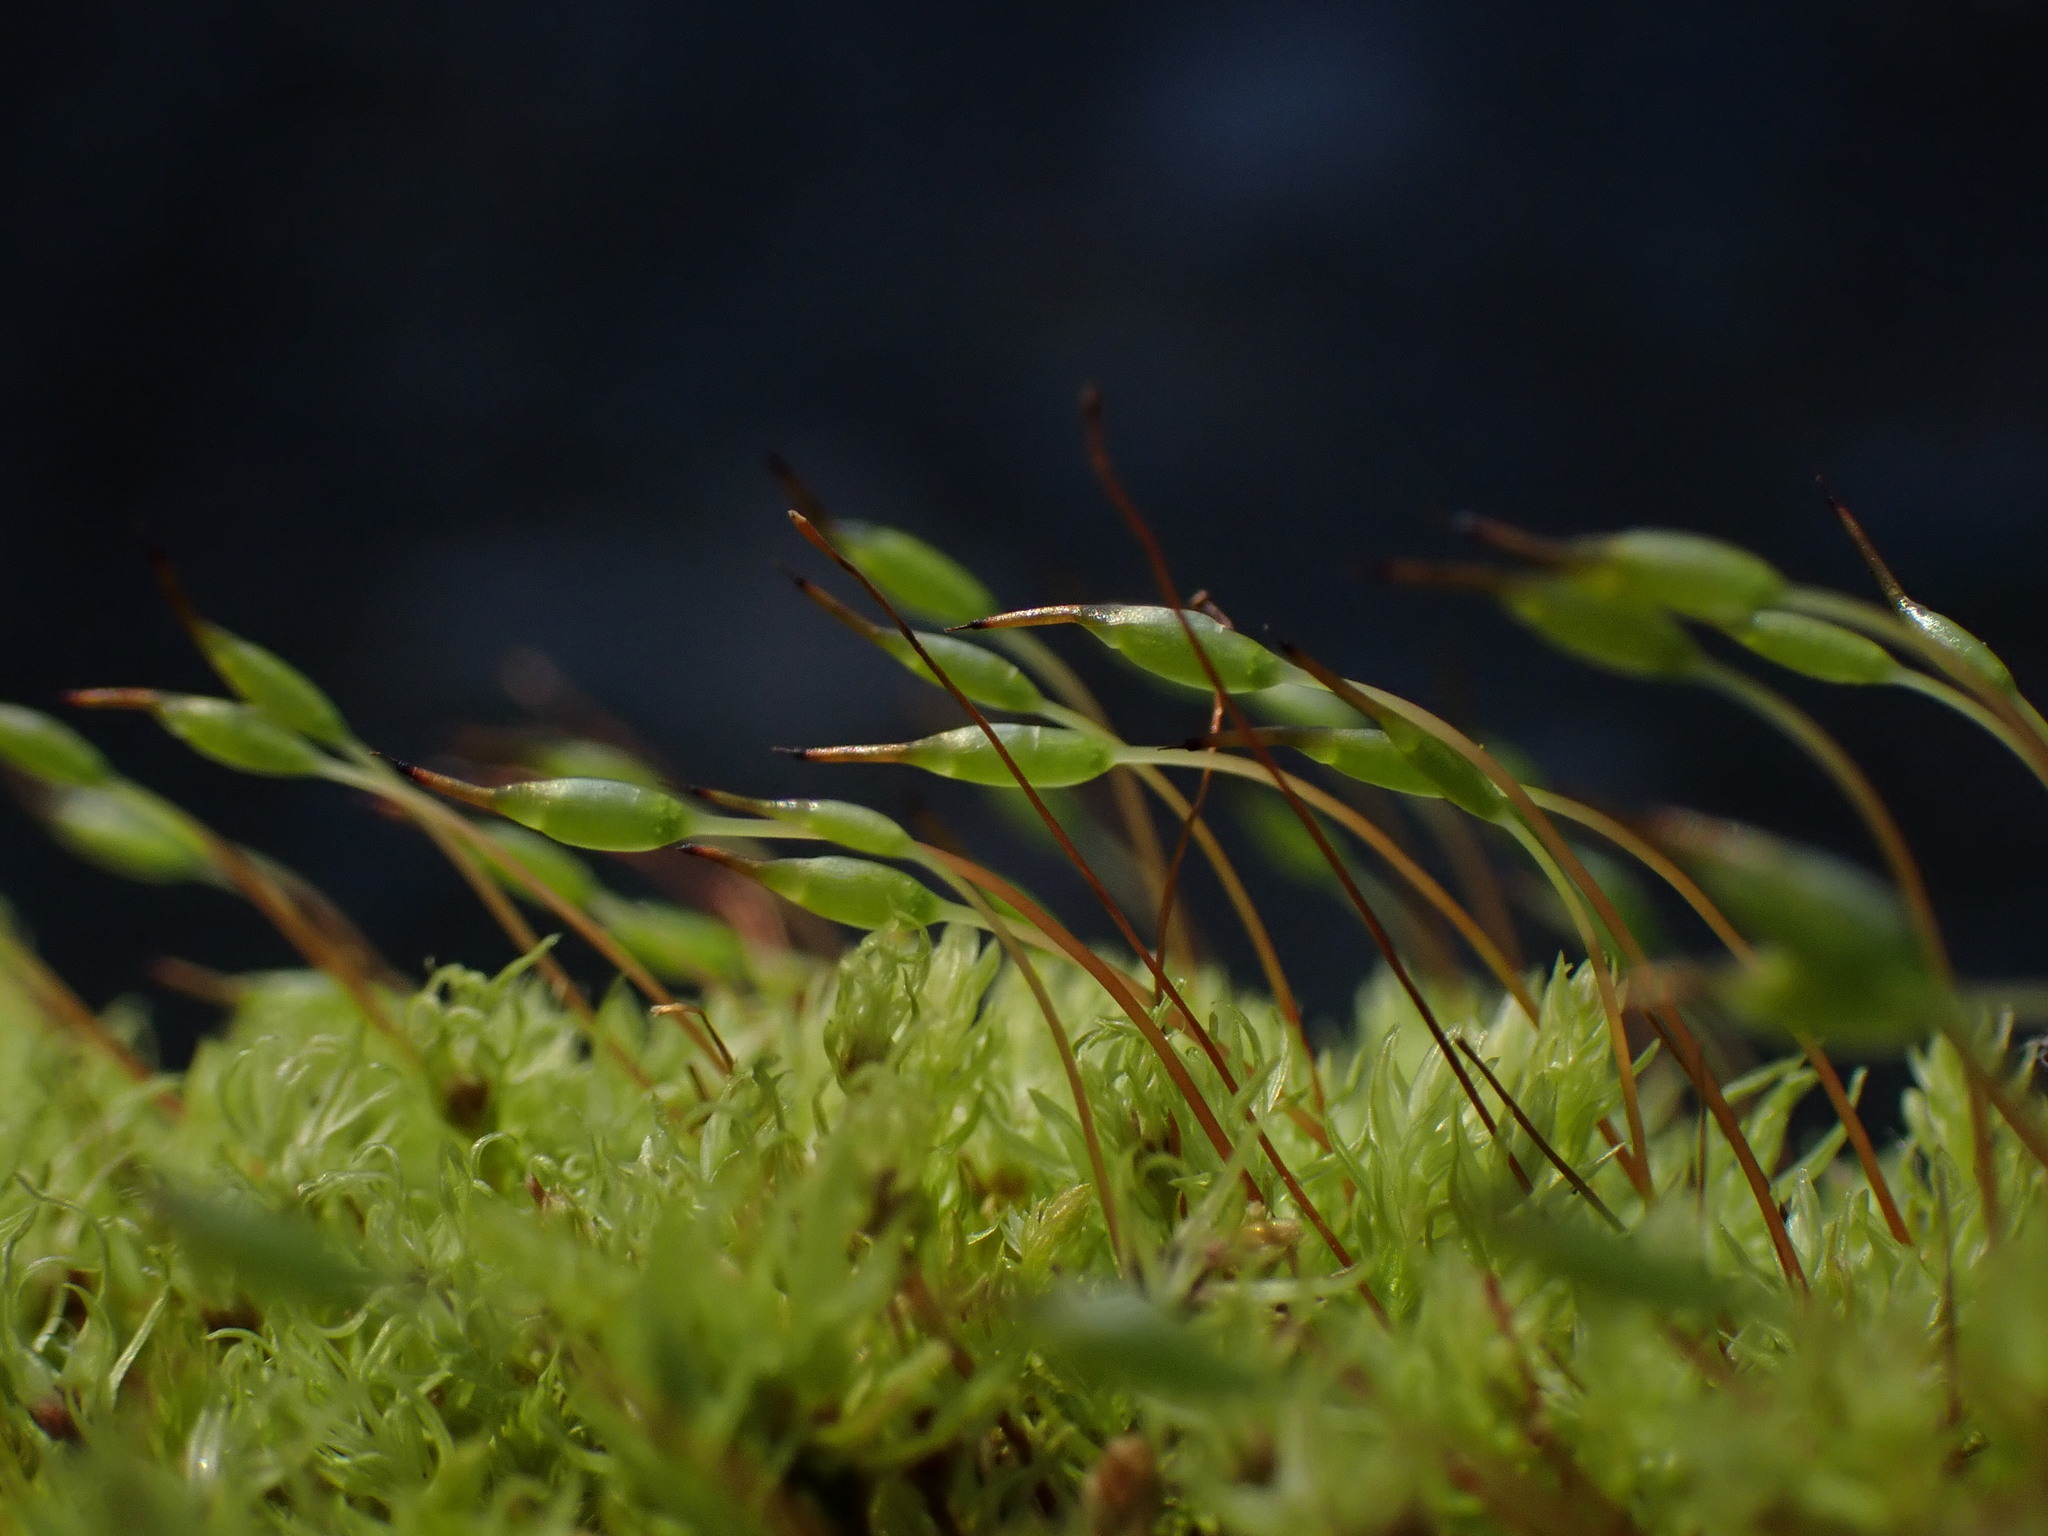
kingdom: Plantae
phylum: Bryophyta
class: Bryopsida
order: Aulacomniales
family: Aulacomniaceae
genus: Aulacomnium
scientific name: Aulacomnium androgynum
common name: Little groove moss
